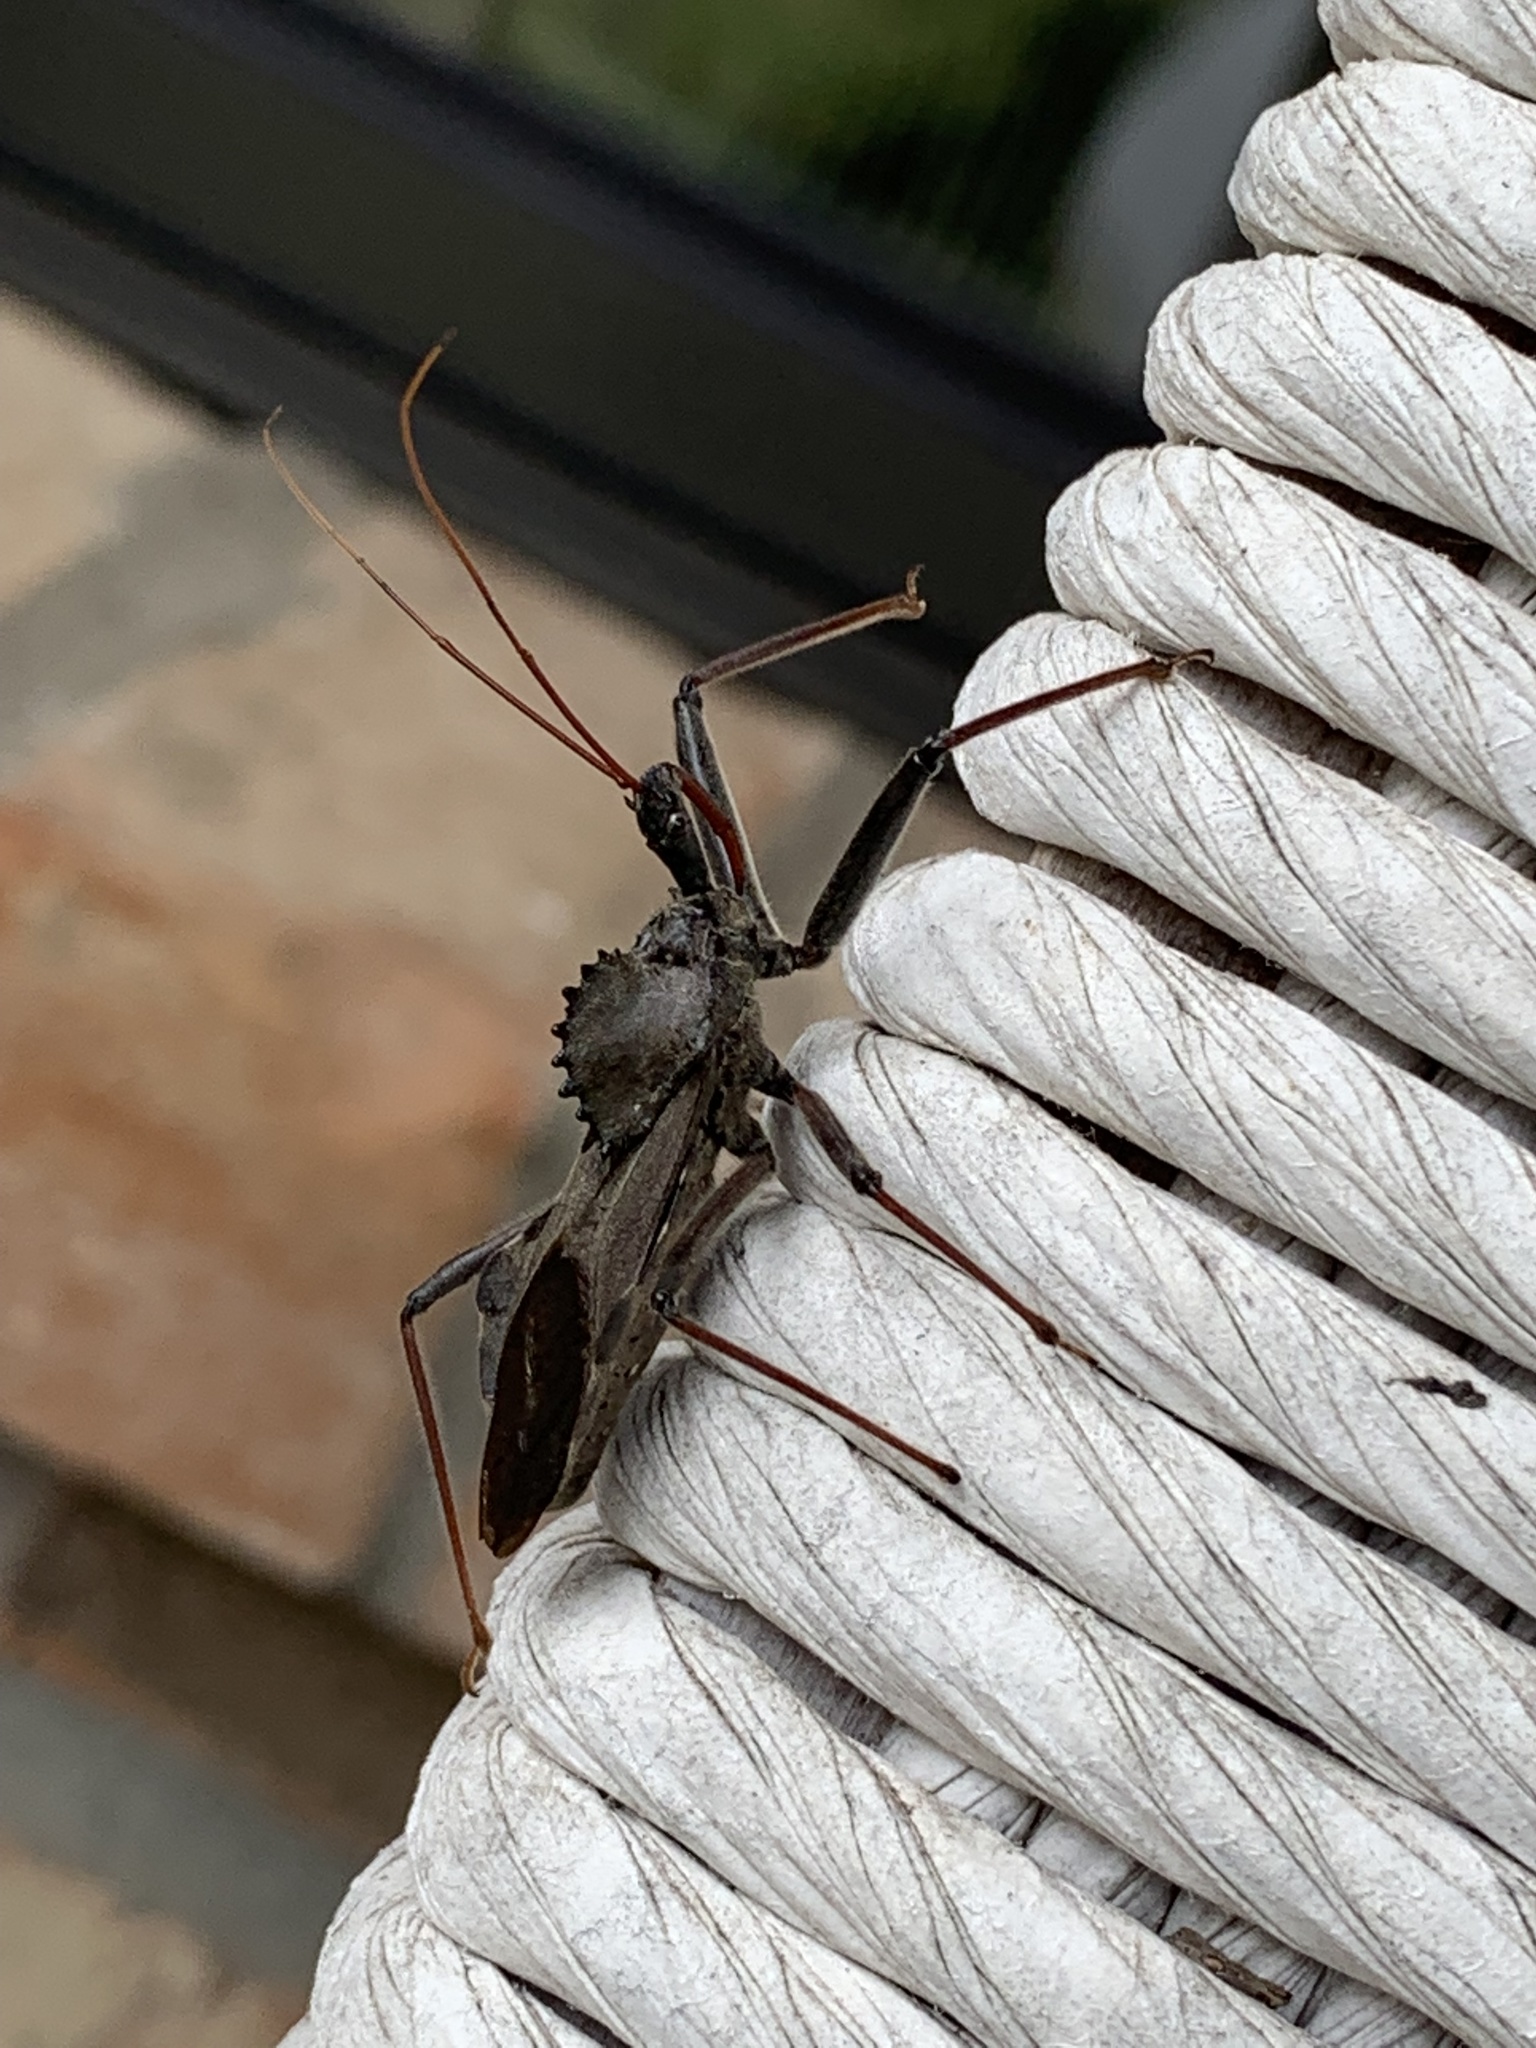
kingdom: Animalia
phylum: Arthropoda
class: Insecta
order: Hemiptera
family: Reduviidae
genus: Arilus
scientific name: Arilus cristatus
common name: North american wheel bug
